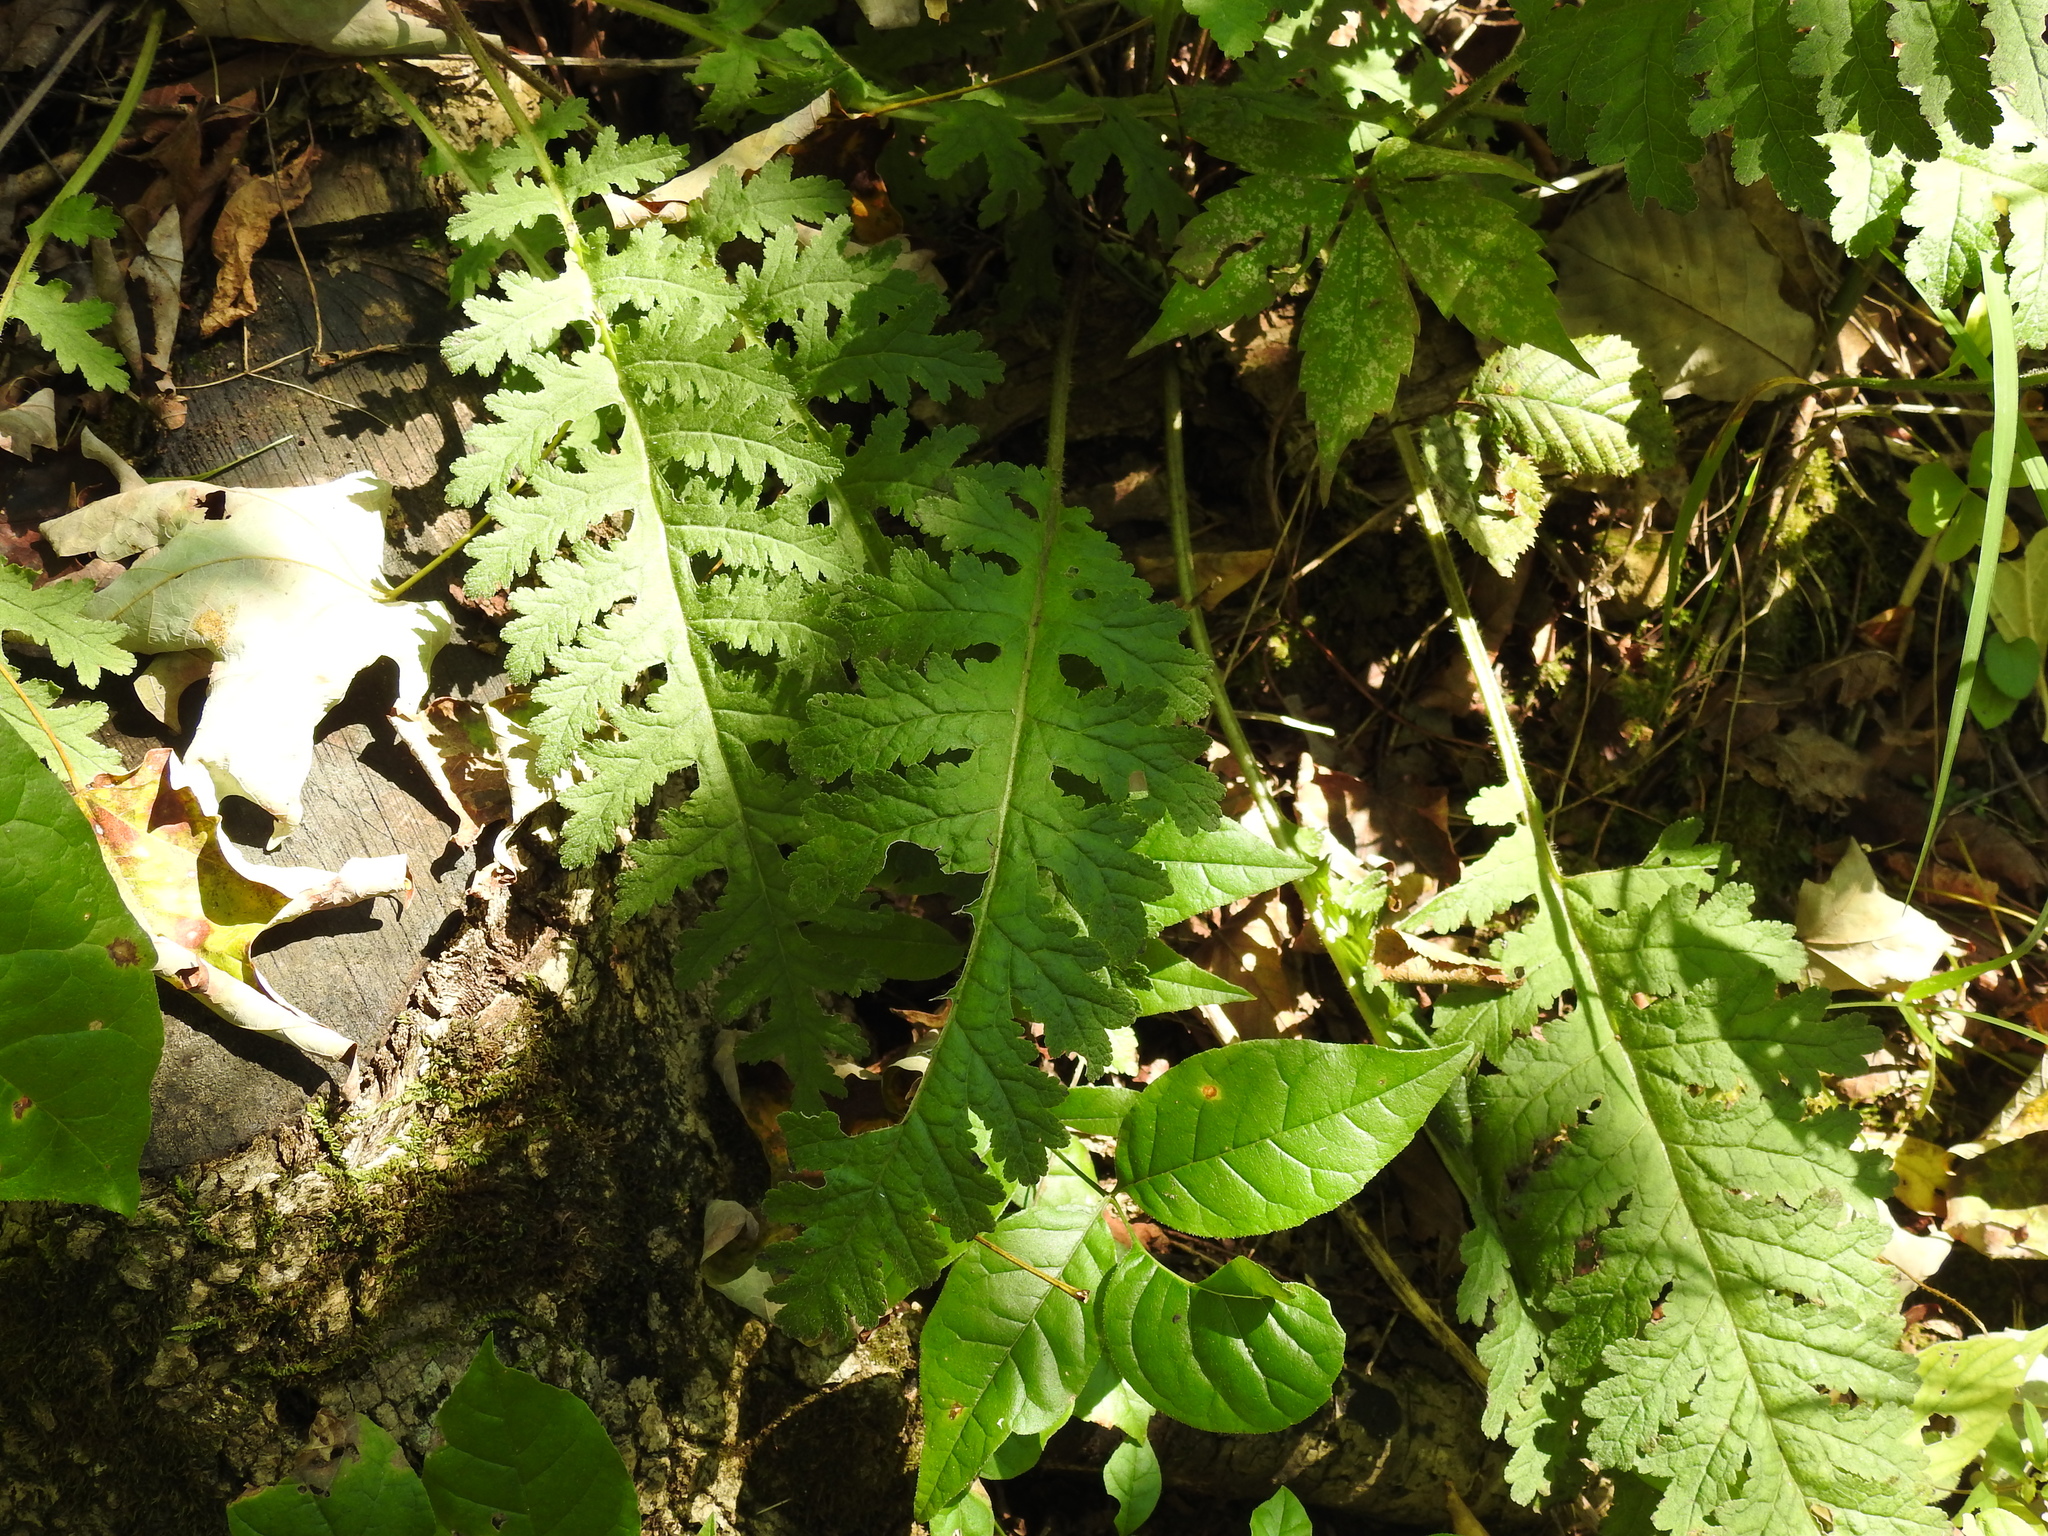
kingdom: Plantae
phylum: Tracheophyta
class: Magnoliopsida
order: Lamiales
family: Orobanchaceae
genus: Pedicularis
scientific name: Pedicularis canadensis
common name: Early lousewort
